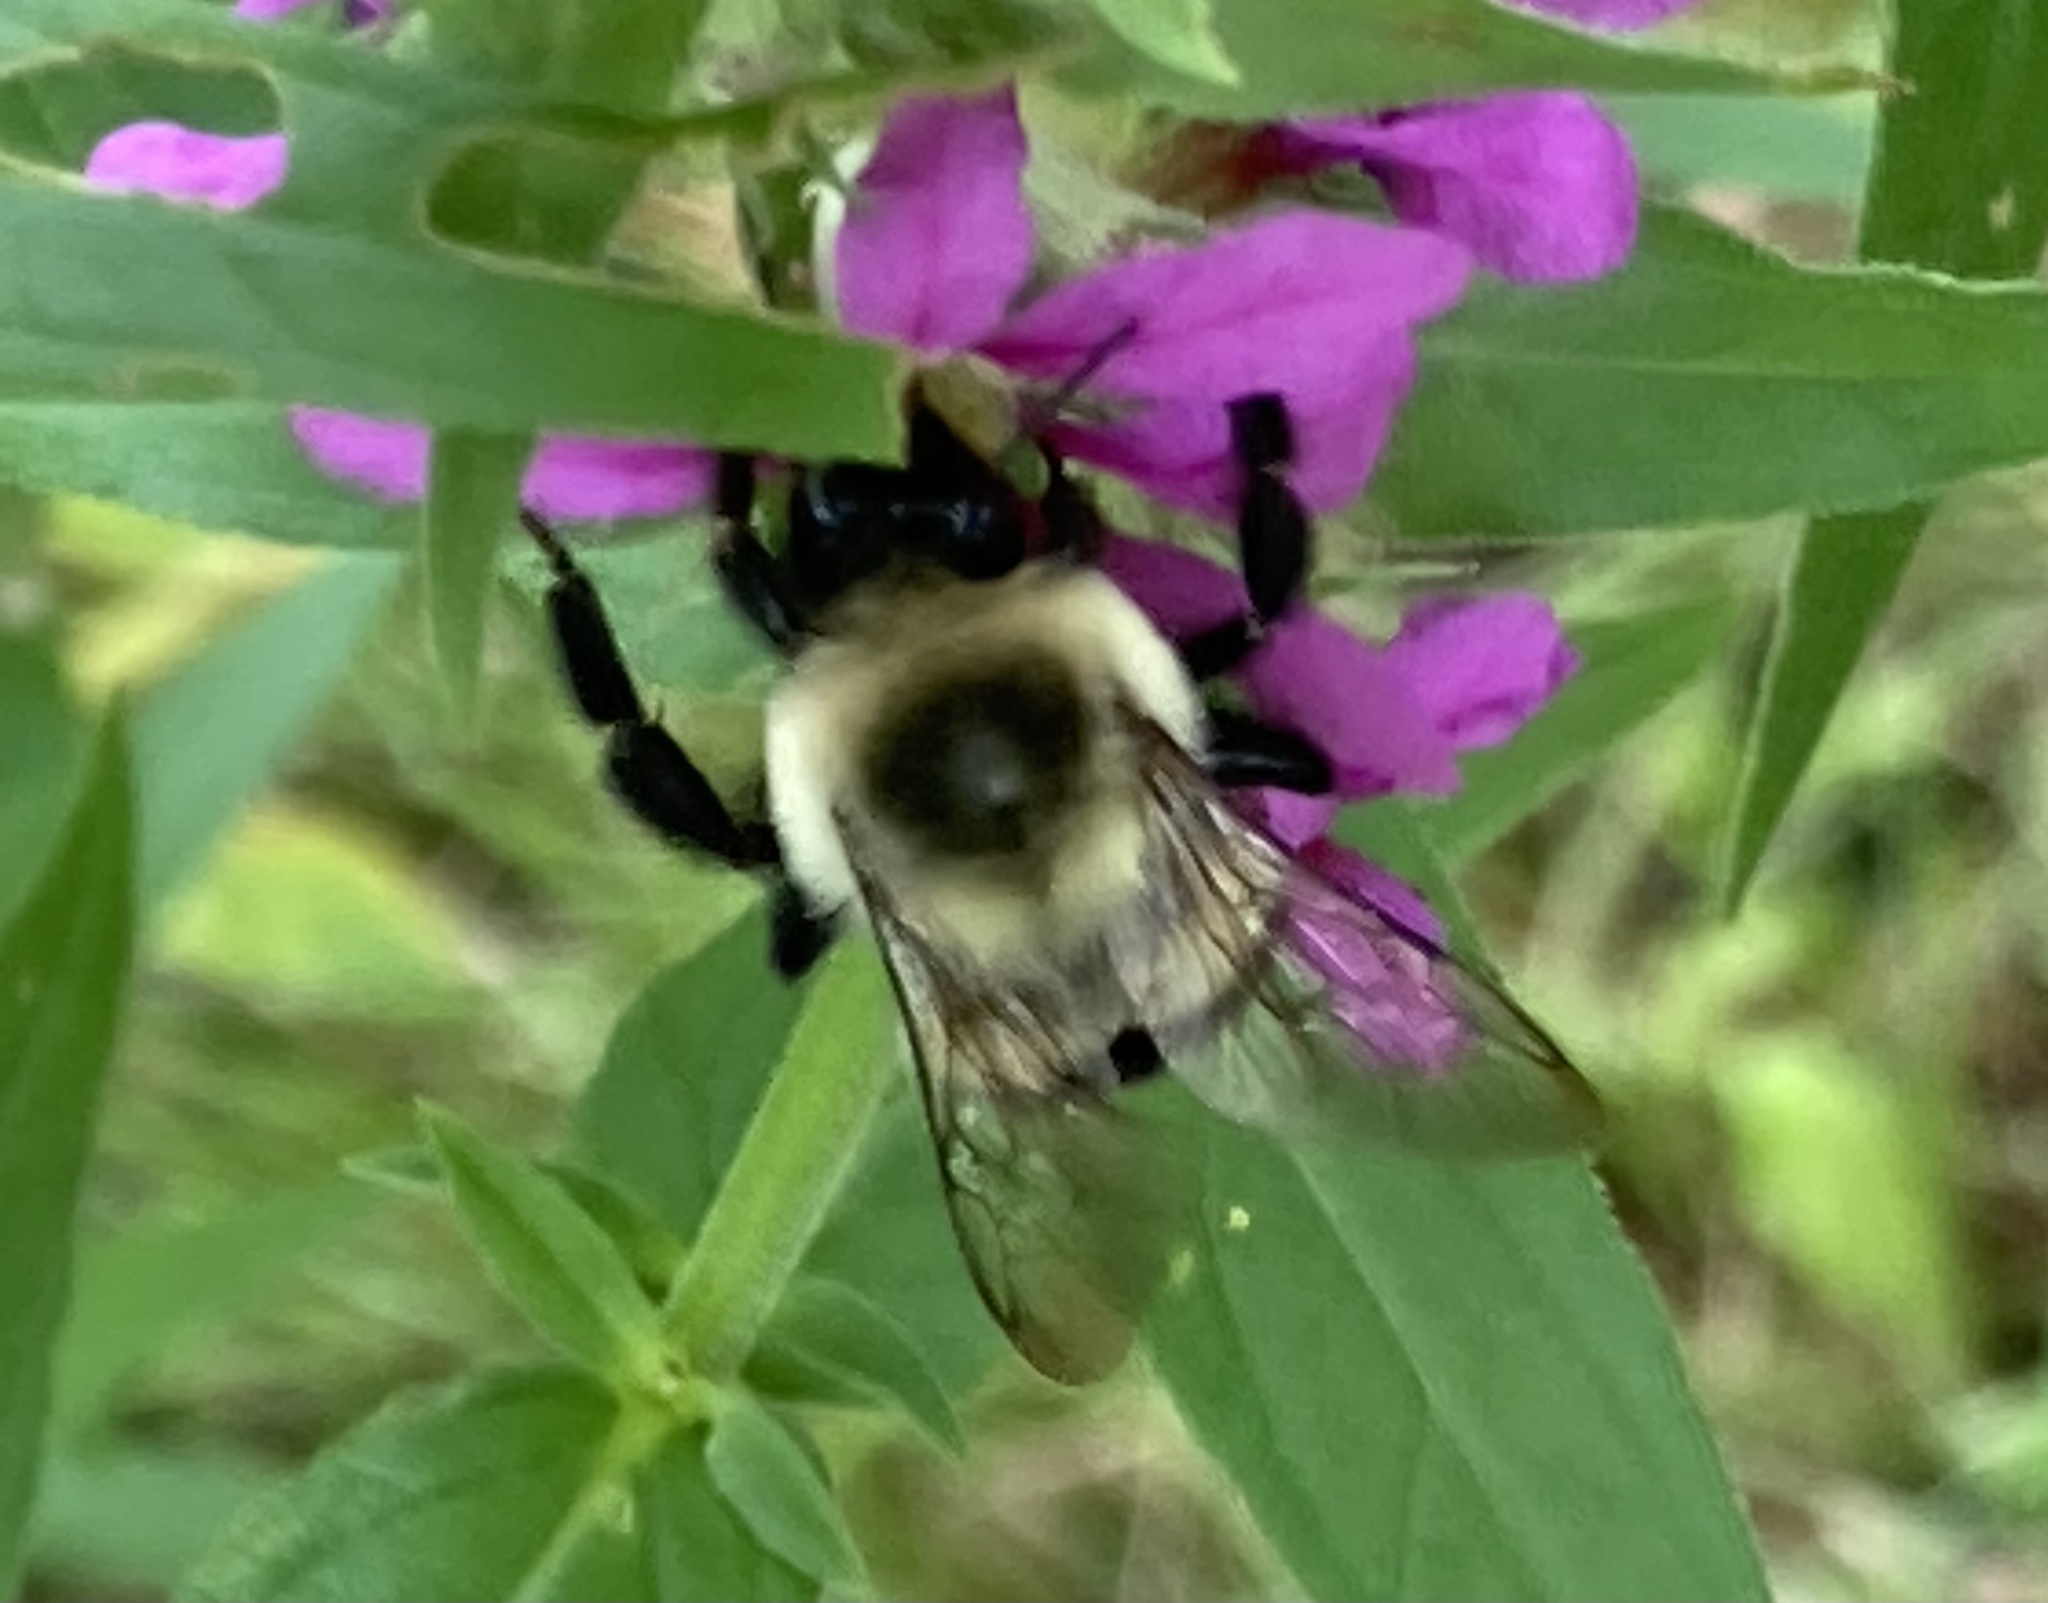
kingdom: Animalia
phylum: Arthropoda
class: Insecta
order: Hymenoptera
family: Apidae
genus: Bombus
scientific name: Bombus impatiens
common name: Common eastern bumble bee
